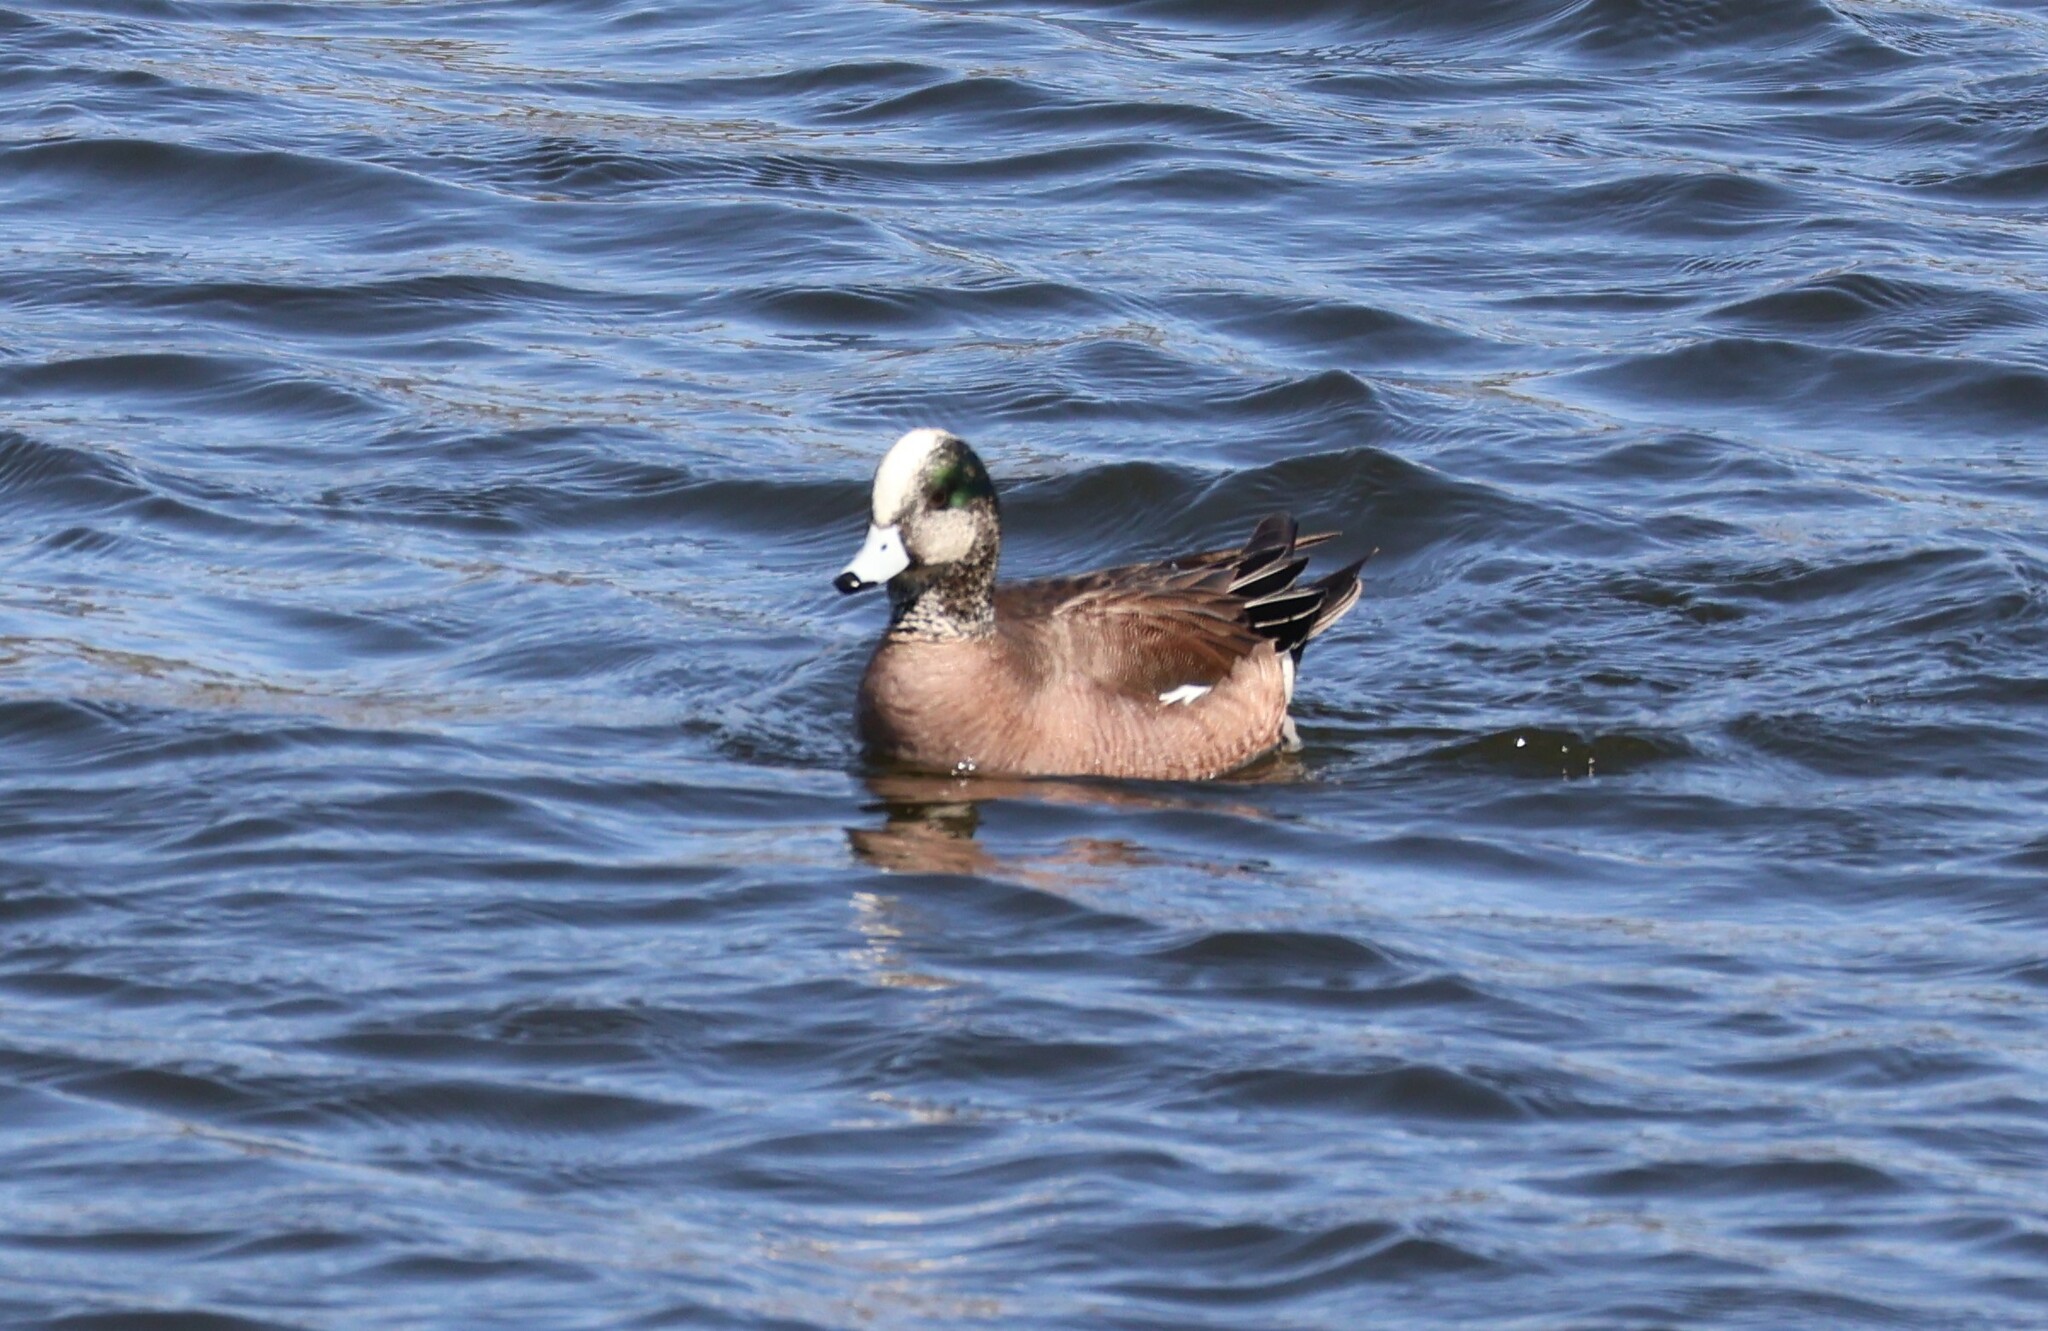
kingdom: Animalia
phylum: Chordata
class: Aves
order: Anseriformes
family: Anatidae
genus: Mareca
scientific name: Mareca americana
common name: American wigeon
